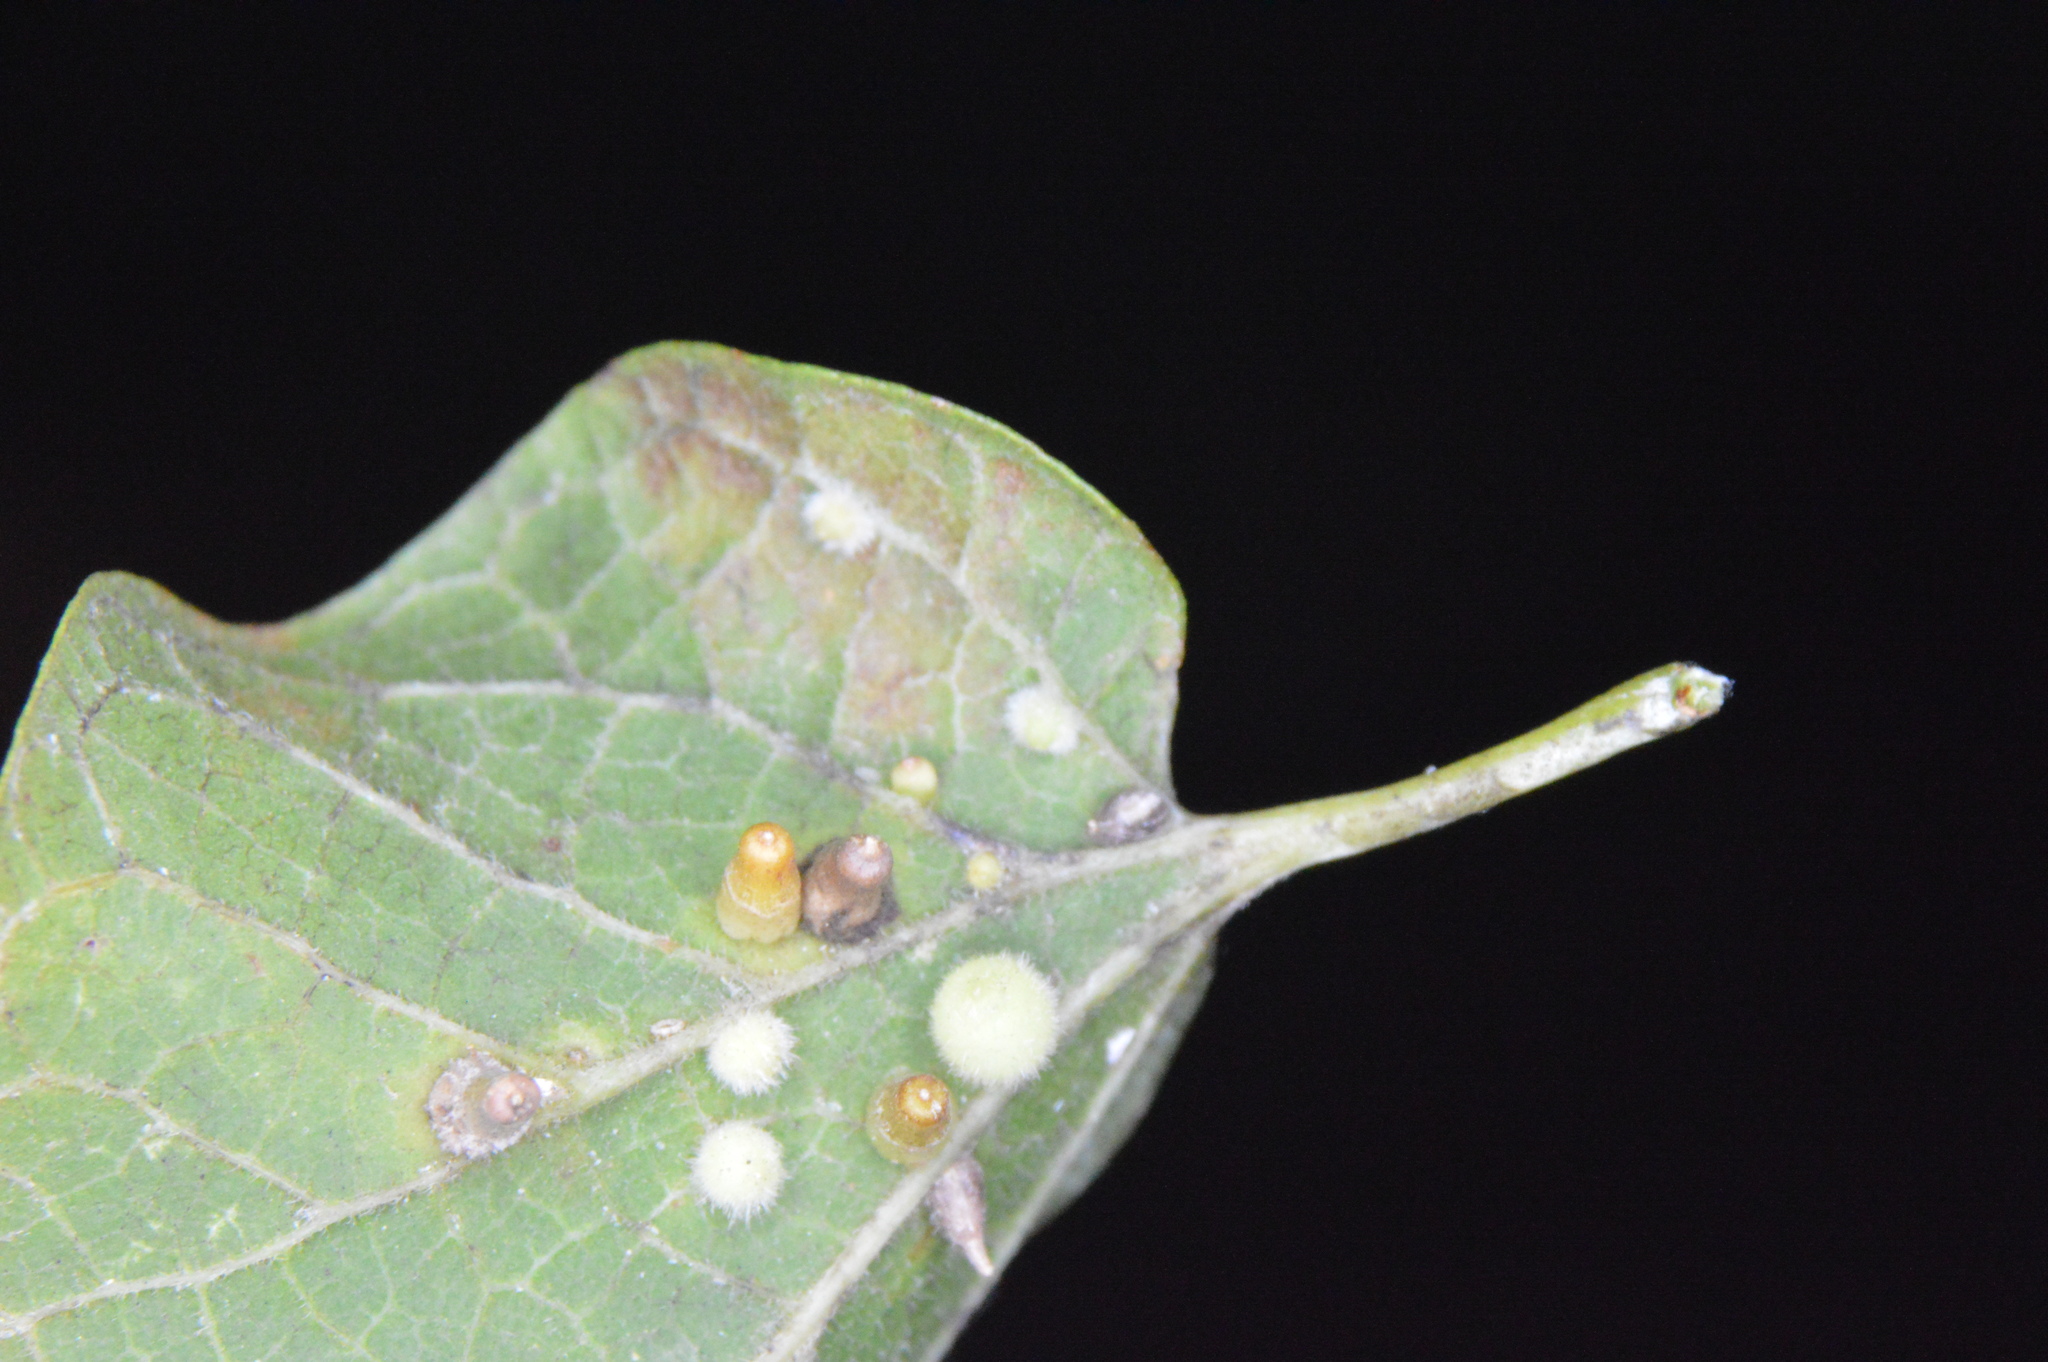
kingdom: Animalia
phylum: Arthropoda
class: Insecta
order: Diptera
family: Cecidomyiidae
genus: Celticecis
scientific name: Celticecis aciculata
